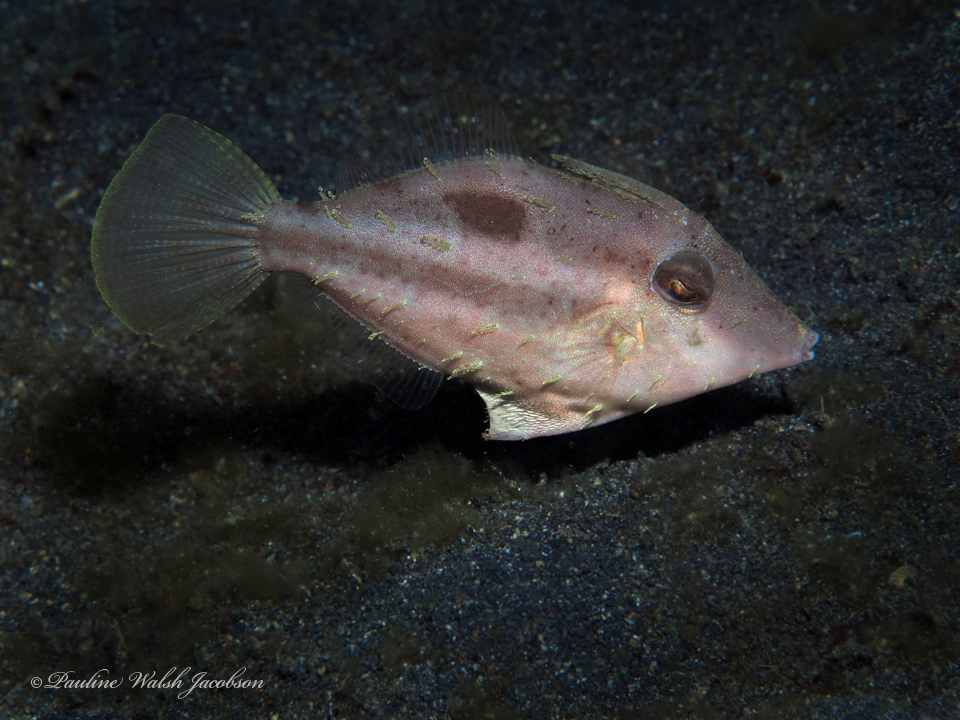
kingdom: Animalia
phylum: Chordata
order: Tetraodontiformes
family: Monacanthidae
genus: Paramonacanthus
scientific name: Paramonacanthus curtorhynchos
